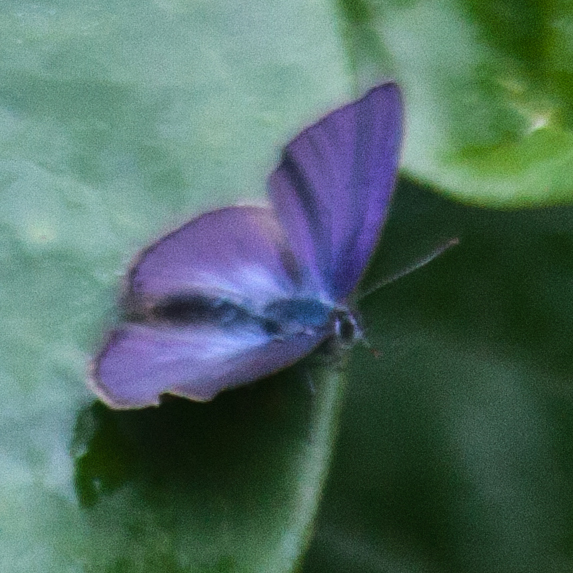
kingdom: Animalia
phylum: Arthropoda
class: Insecta
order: Lepidoptera
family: Lycaenidae
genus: Anthene
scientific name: Anthene emolus
